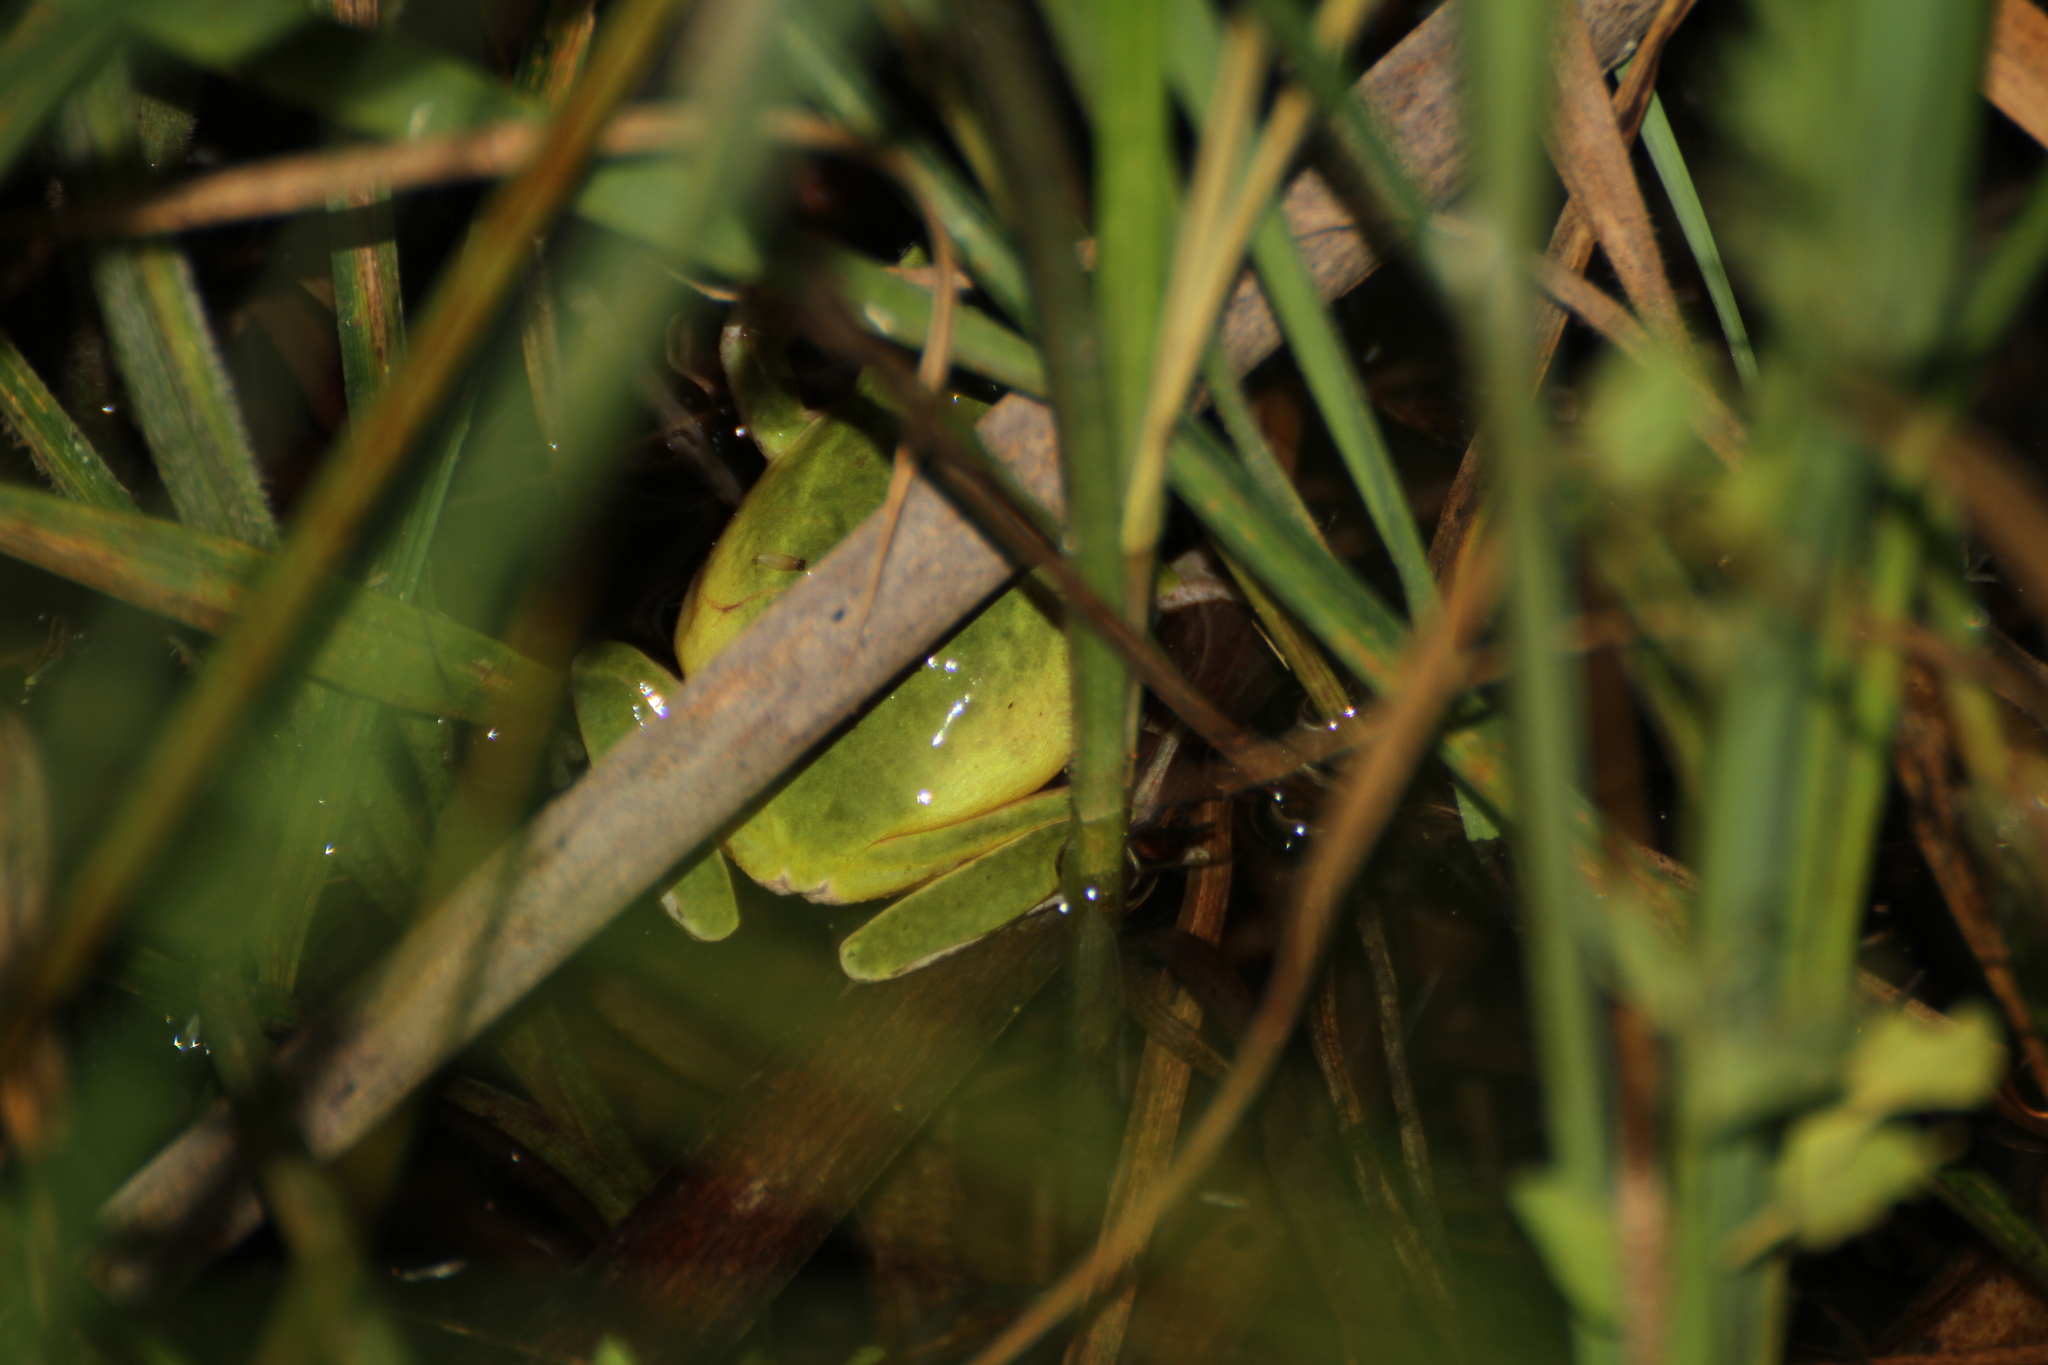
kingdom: Animalia
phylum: Chordata
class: Amphibia
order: Anura
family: Hylidae
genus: Hyla
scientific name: Hyla meridionalis
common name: Stripeless tree frog
